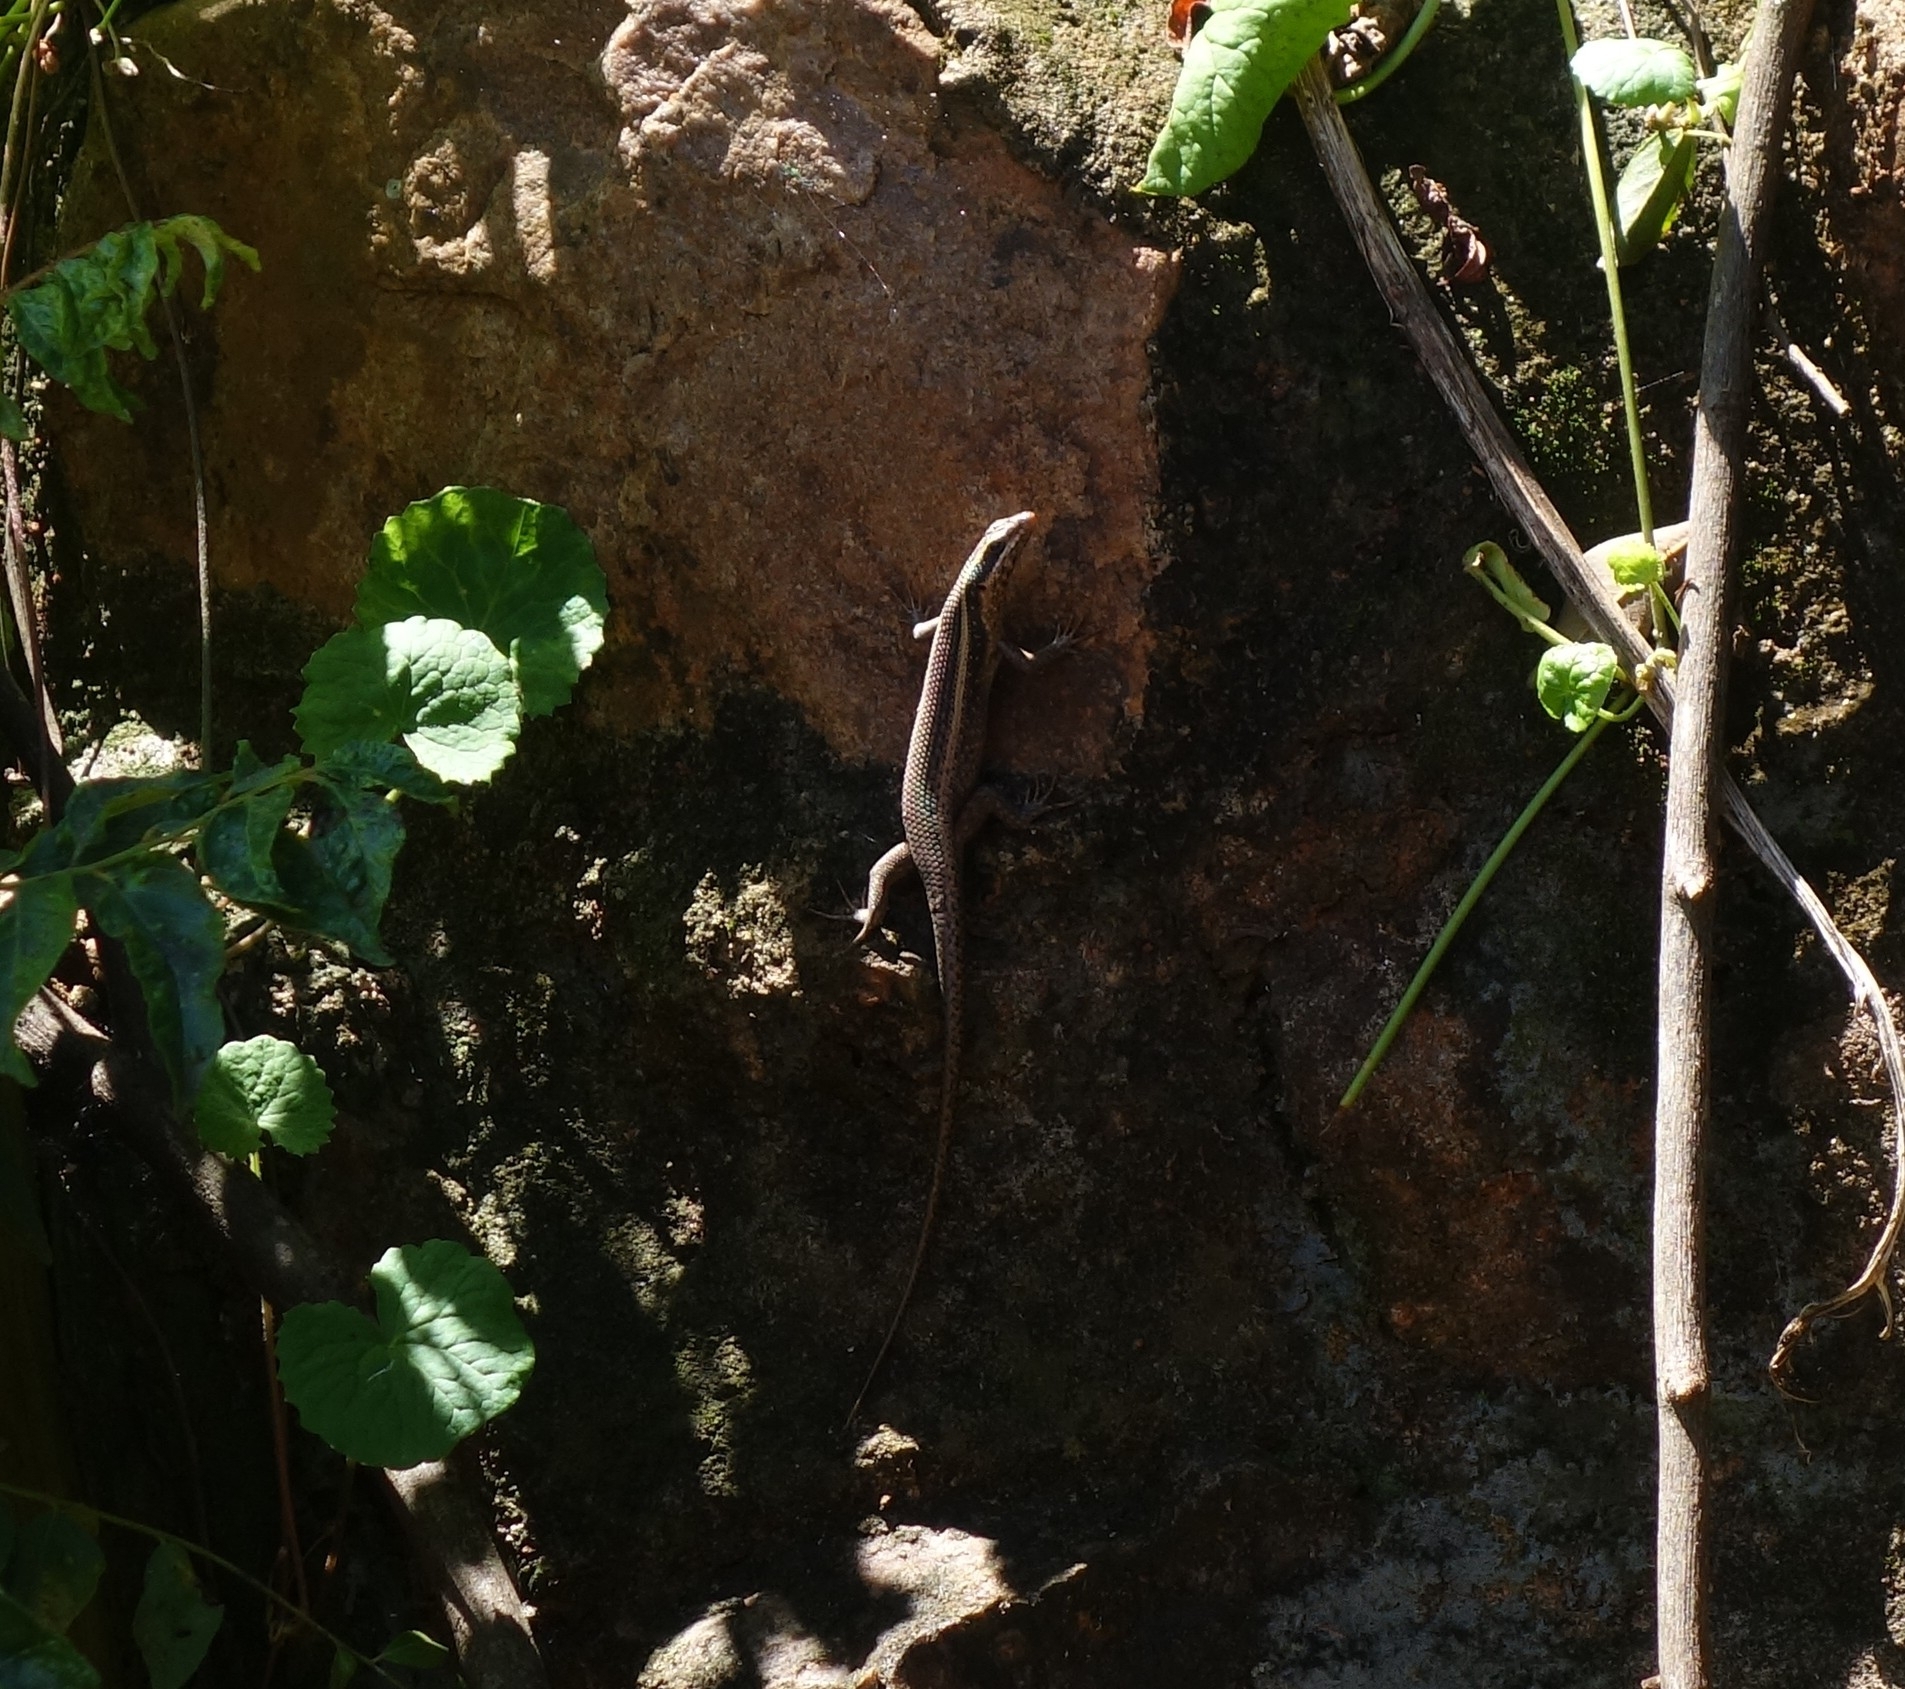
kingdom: Animalia
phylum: Chordata
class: Squamata
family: Scincidae
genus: Trachylepis
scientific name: Trachylepis punctatissima
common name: Montane speckled skink
